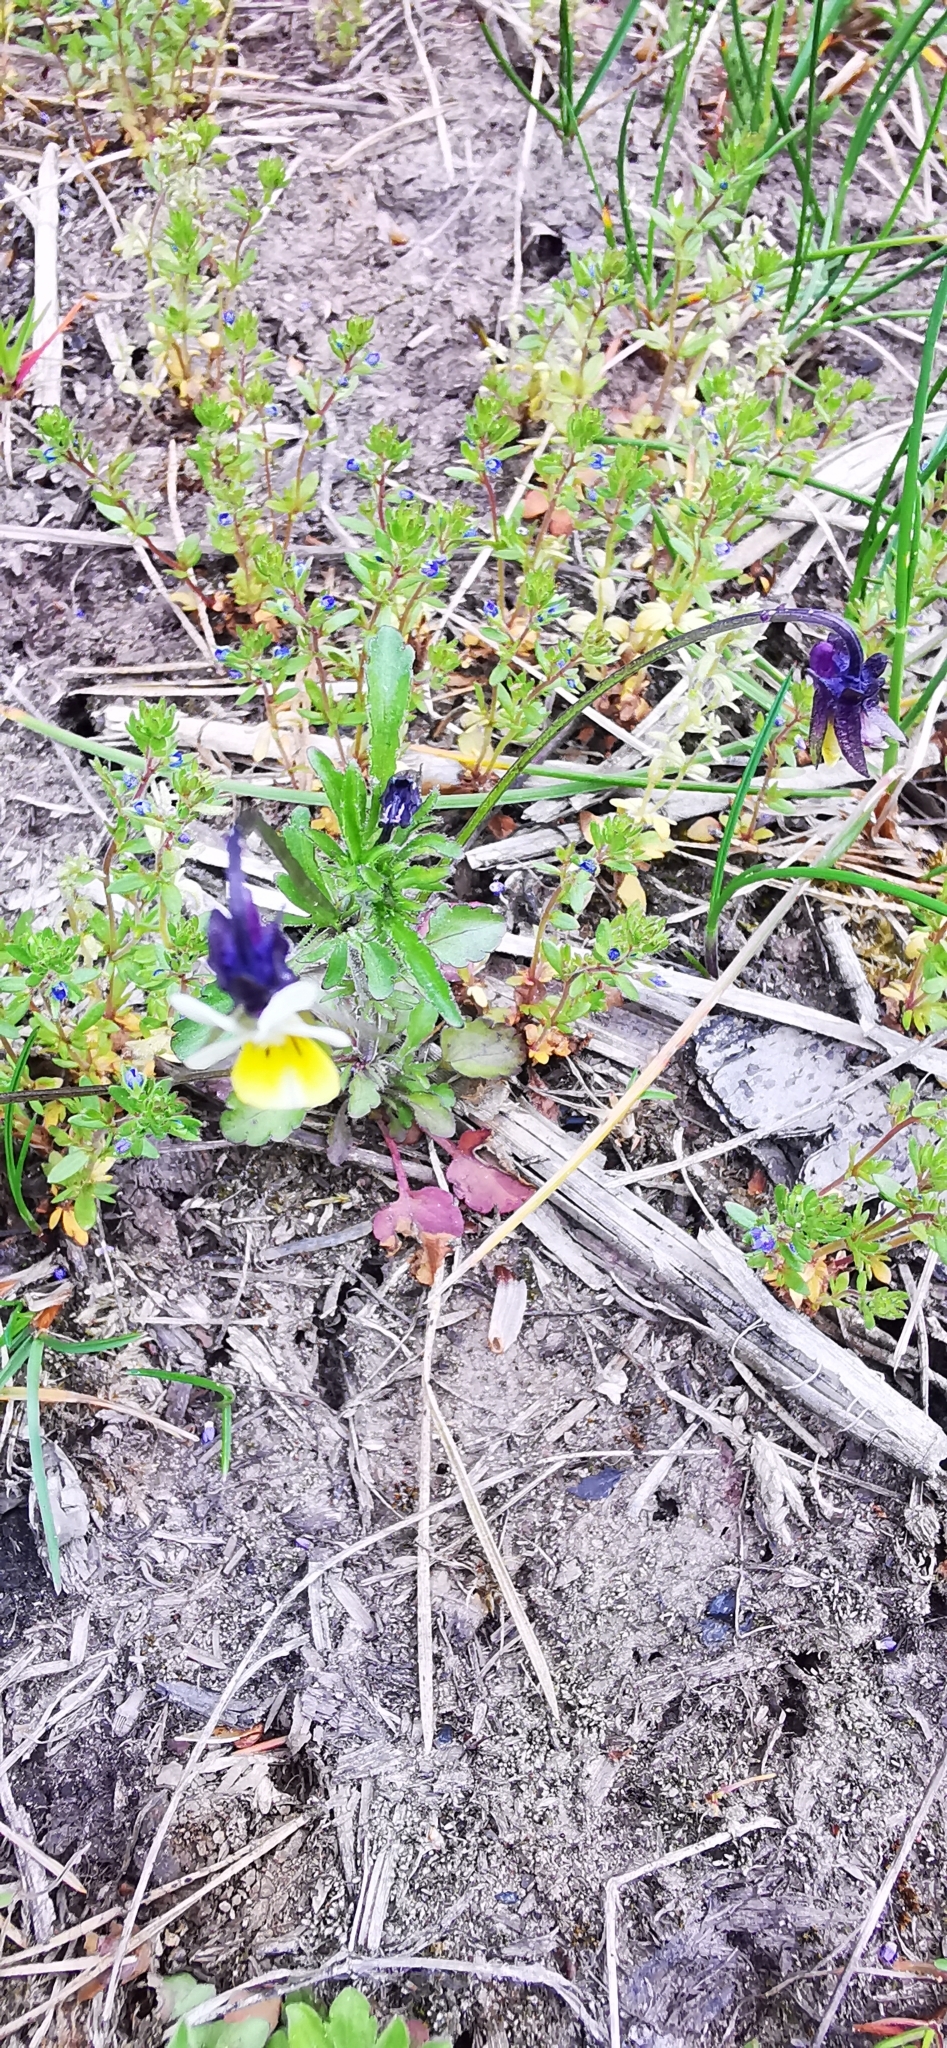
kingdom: Plantae
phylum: Tracheophyta
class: Magnoliopsida
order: Malpighiales
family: Violaceae
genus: Viola
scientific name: Viola arvensis
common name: Field pansy
